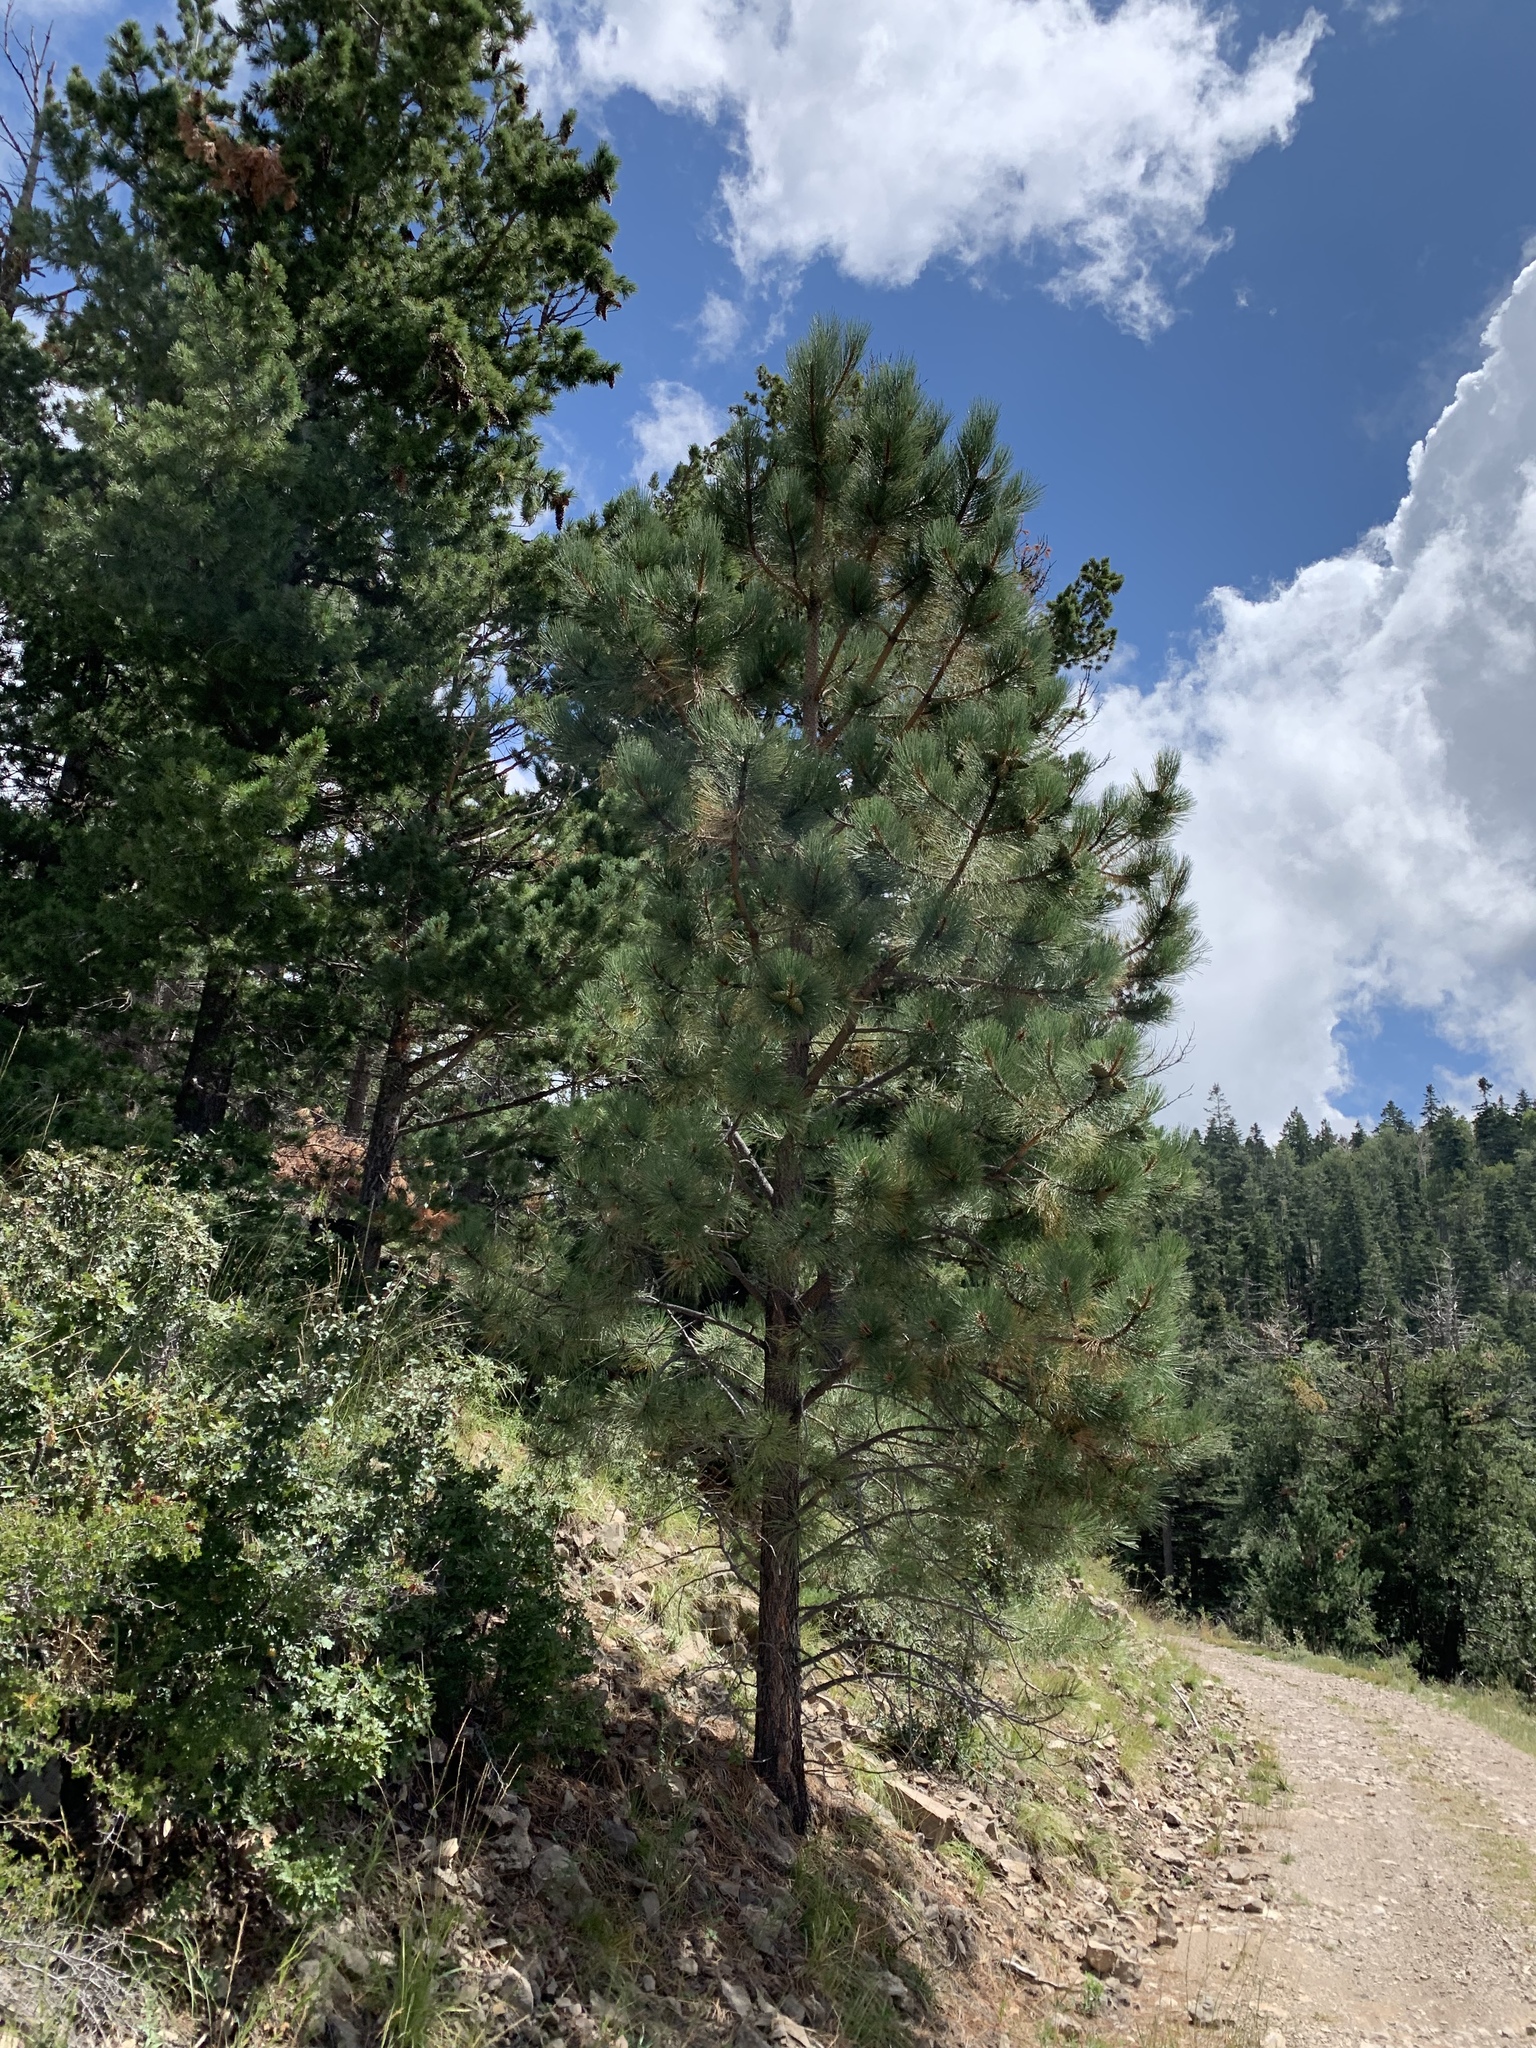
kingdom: Plantae
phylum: Tracheophyta
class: Pinopsida
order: Pinales
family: Pinaceae
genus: Pinus
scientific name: Pinus ponderosa
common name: Western yellow-pine
